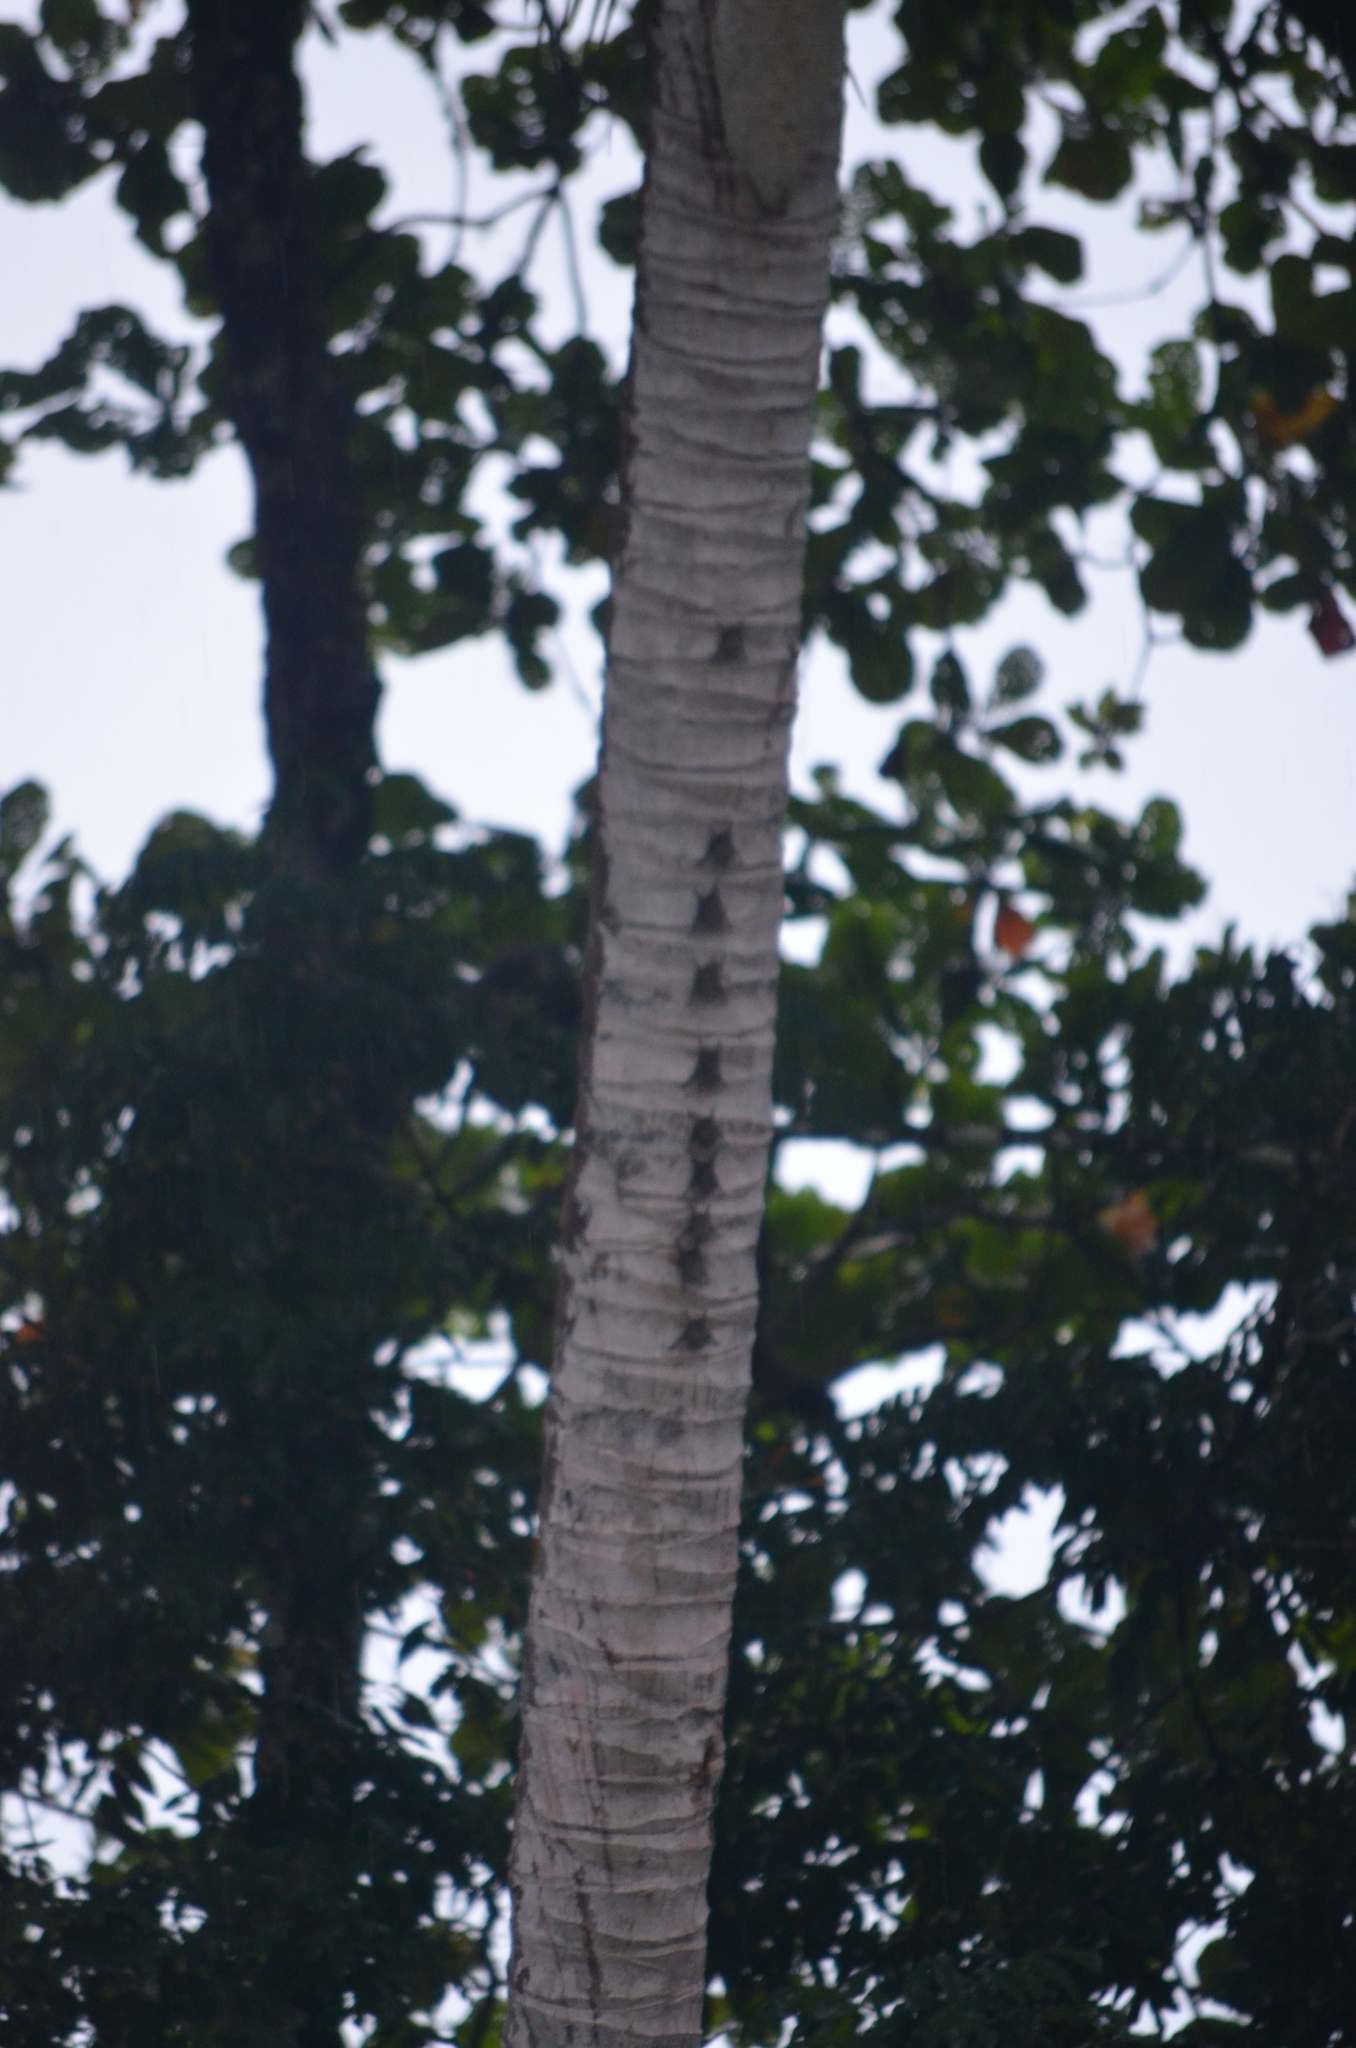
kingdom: Animalia
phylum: Chordata
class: Mammalia
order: Chiroptera
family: Emballonuridae
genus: Rhynchonycteris
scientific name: Rhynchonycteris naso
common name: Proboscis bat
